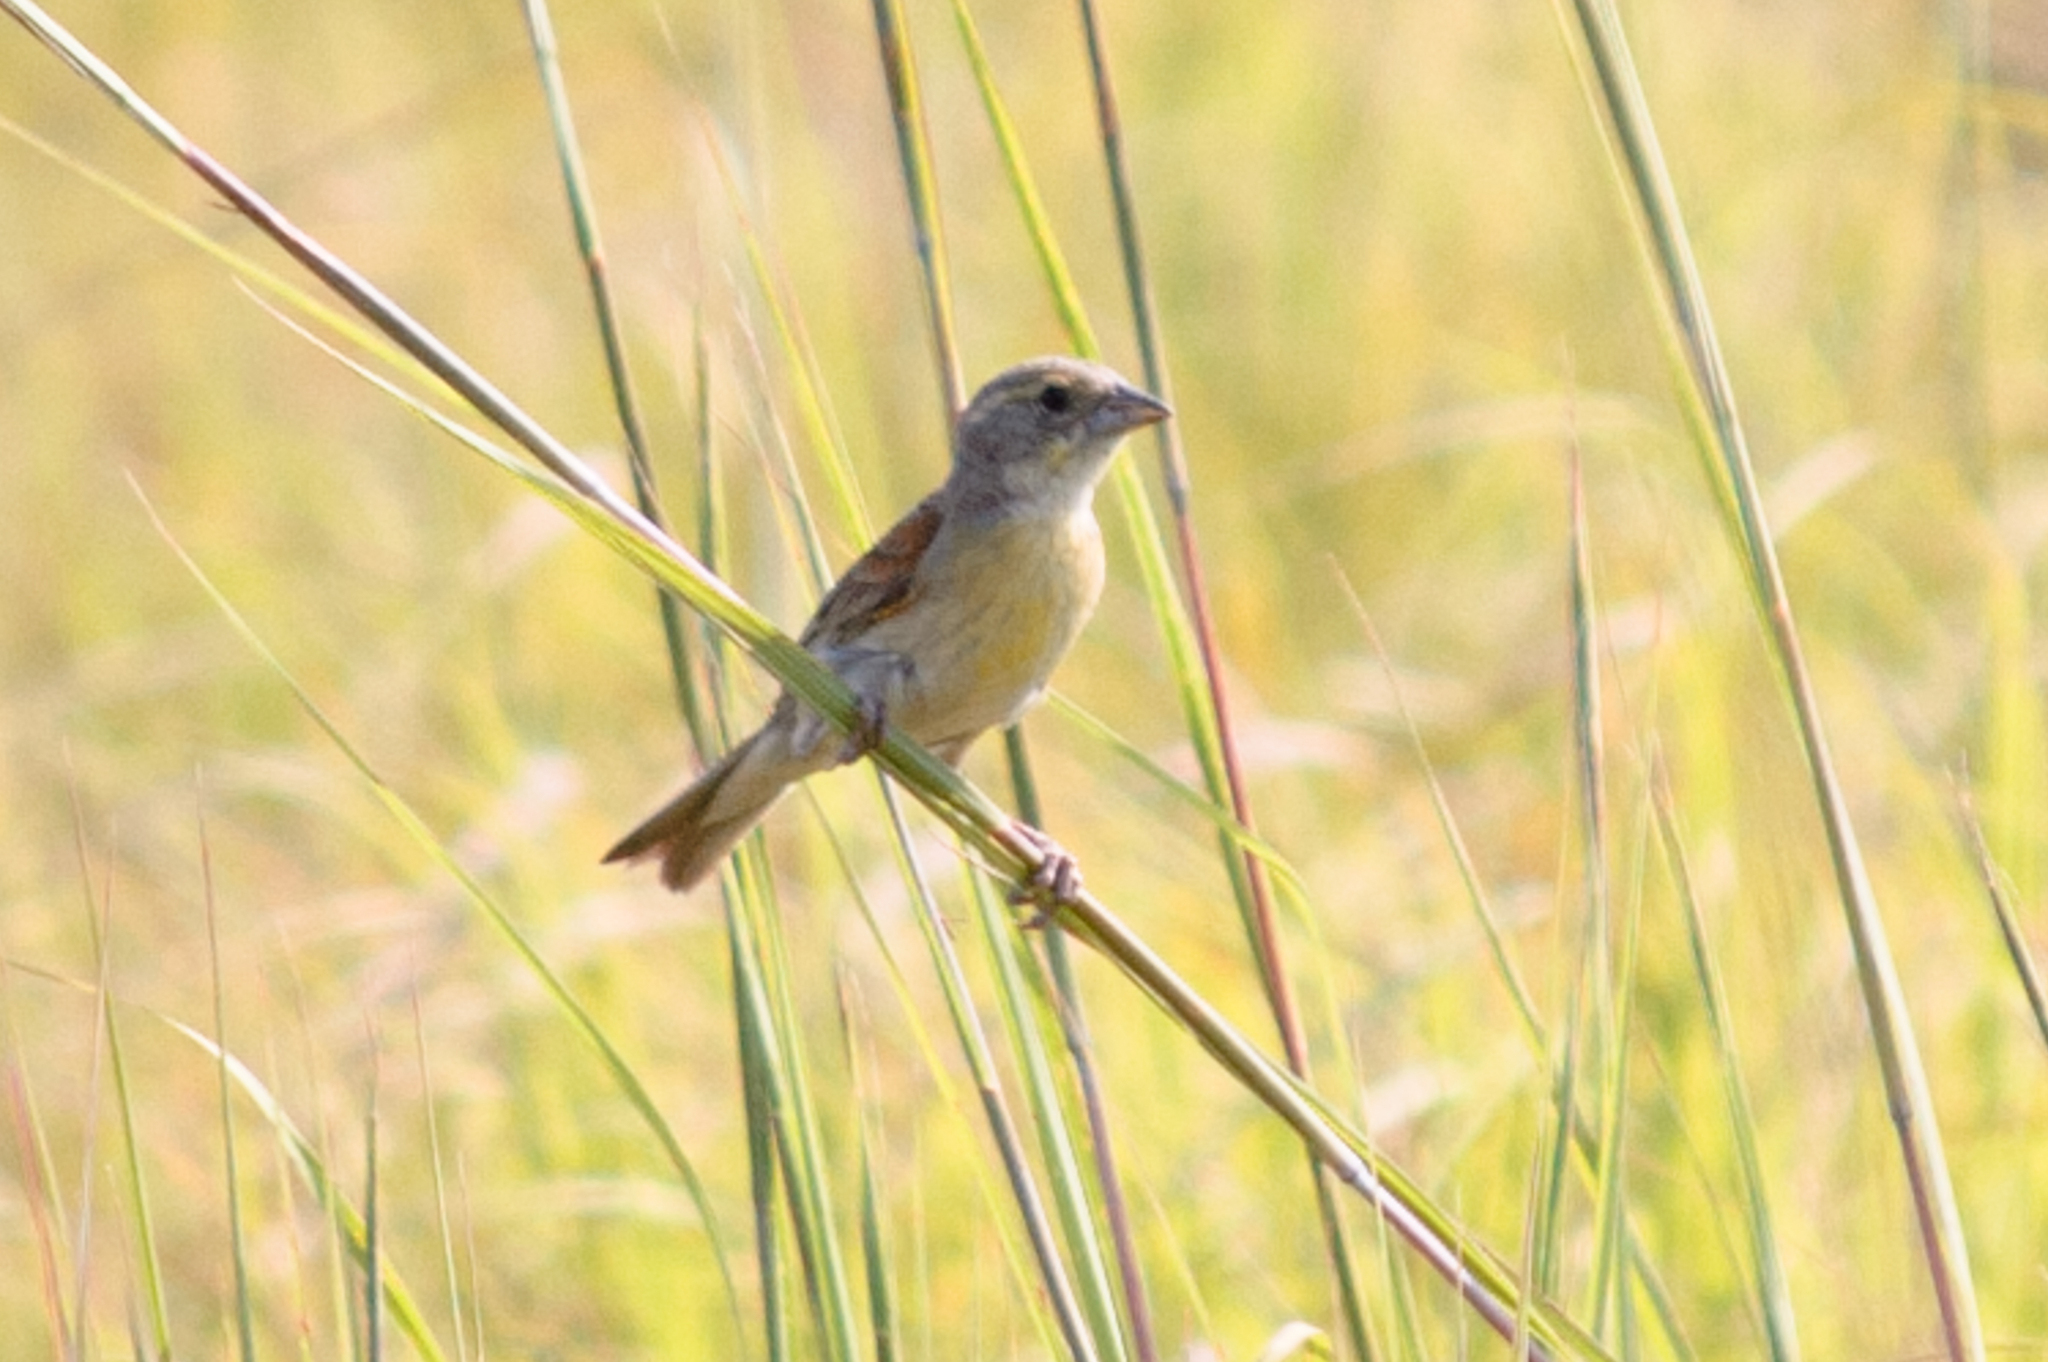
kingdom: Animalia
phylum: Chordata
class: Aves
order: Passeriformes
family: Cardinalidae
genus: Spiza
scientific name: Spiza americana
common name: Dickcissel
